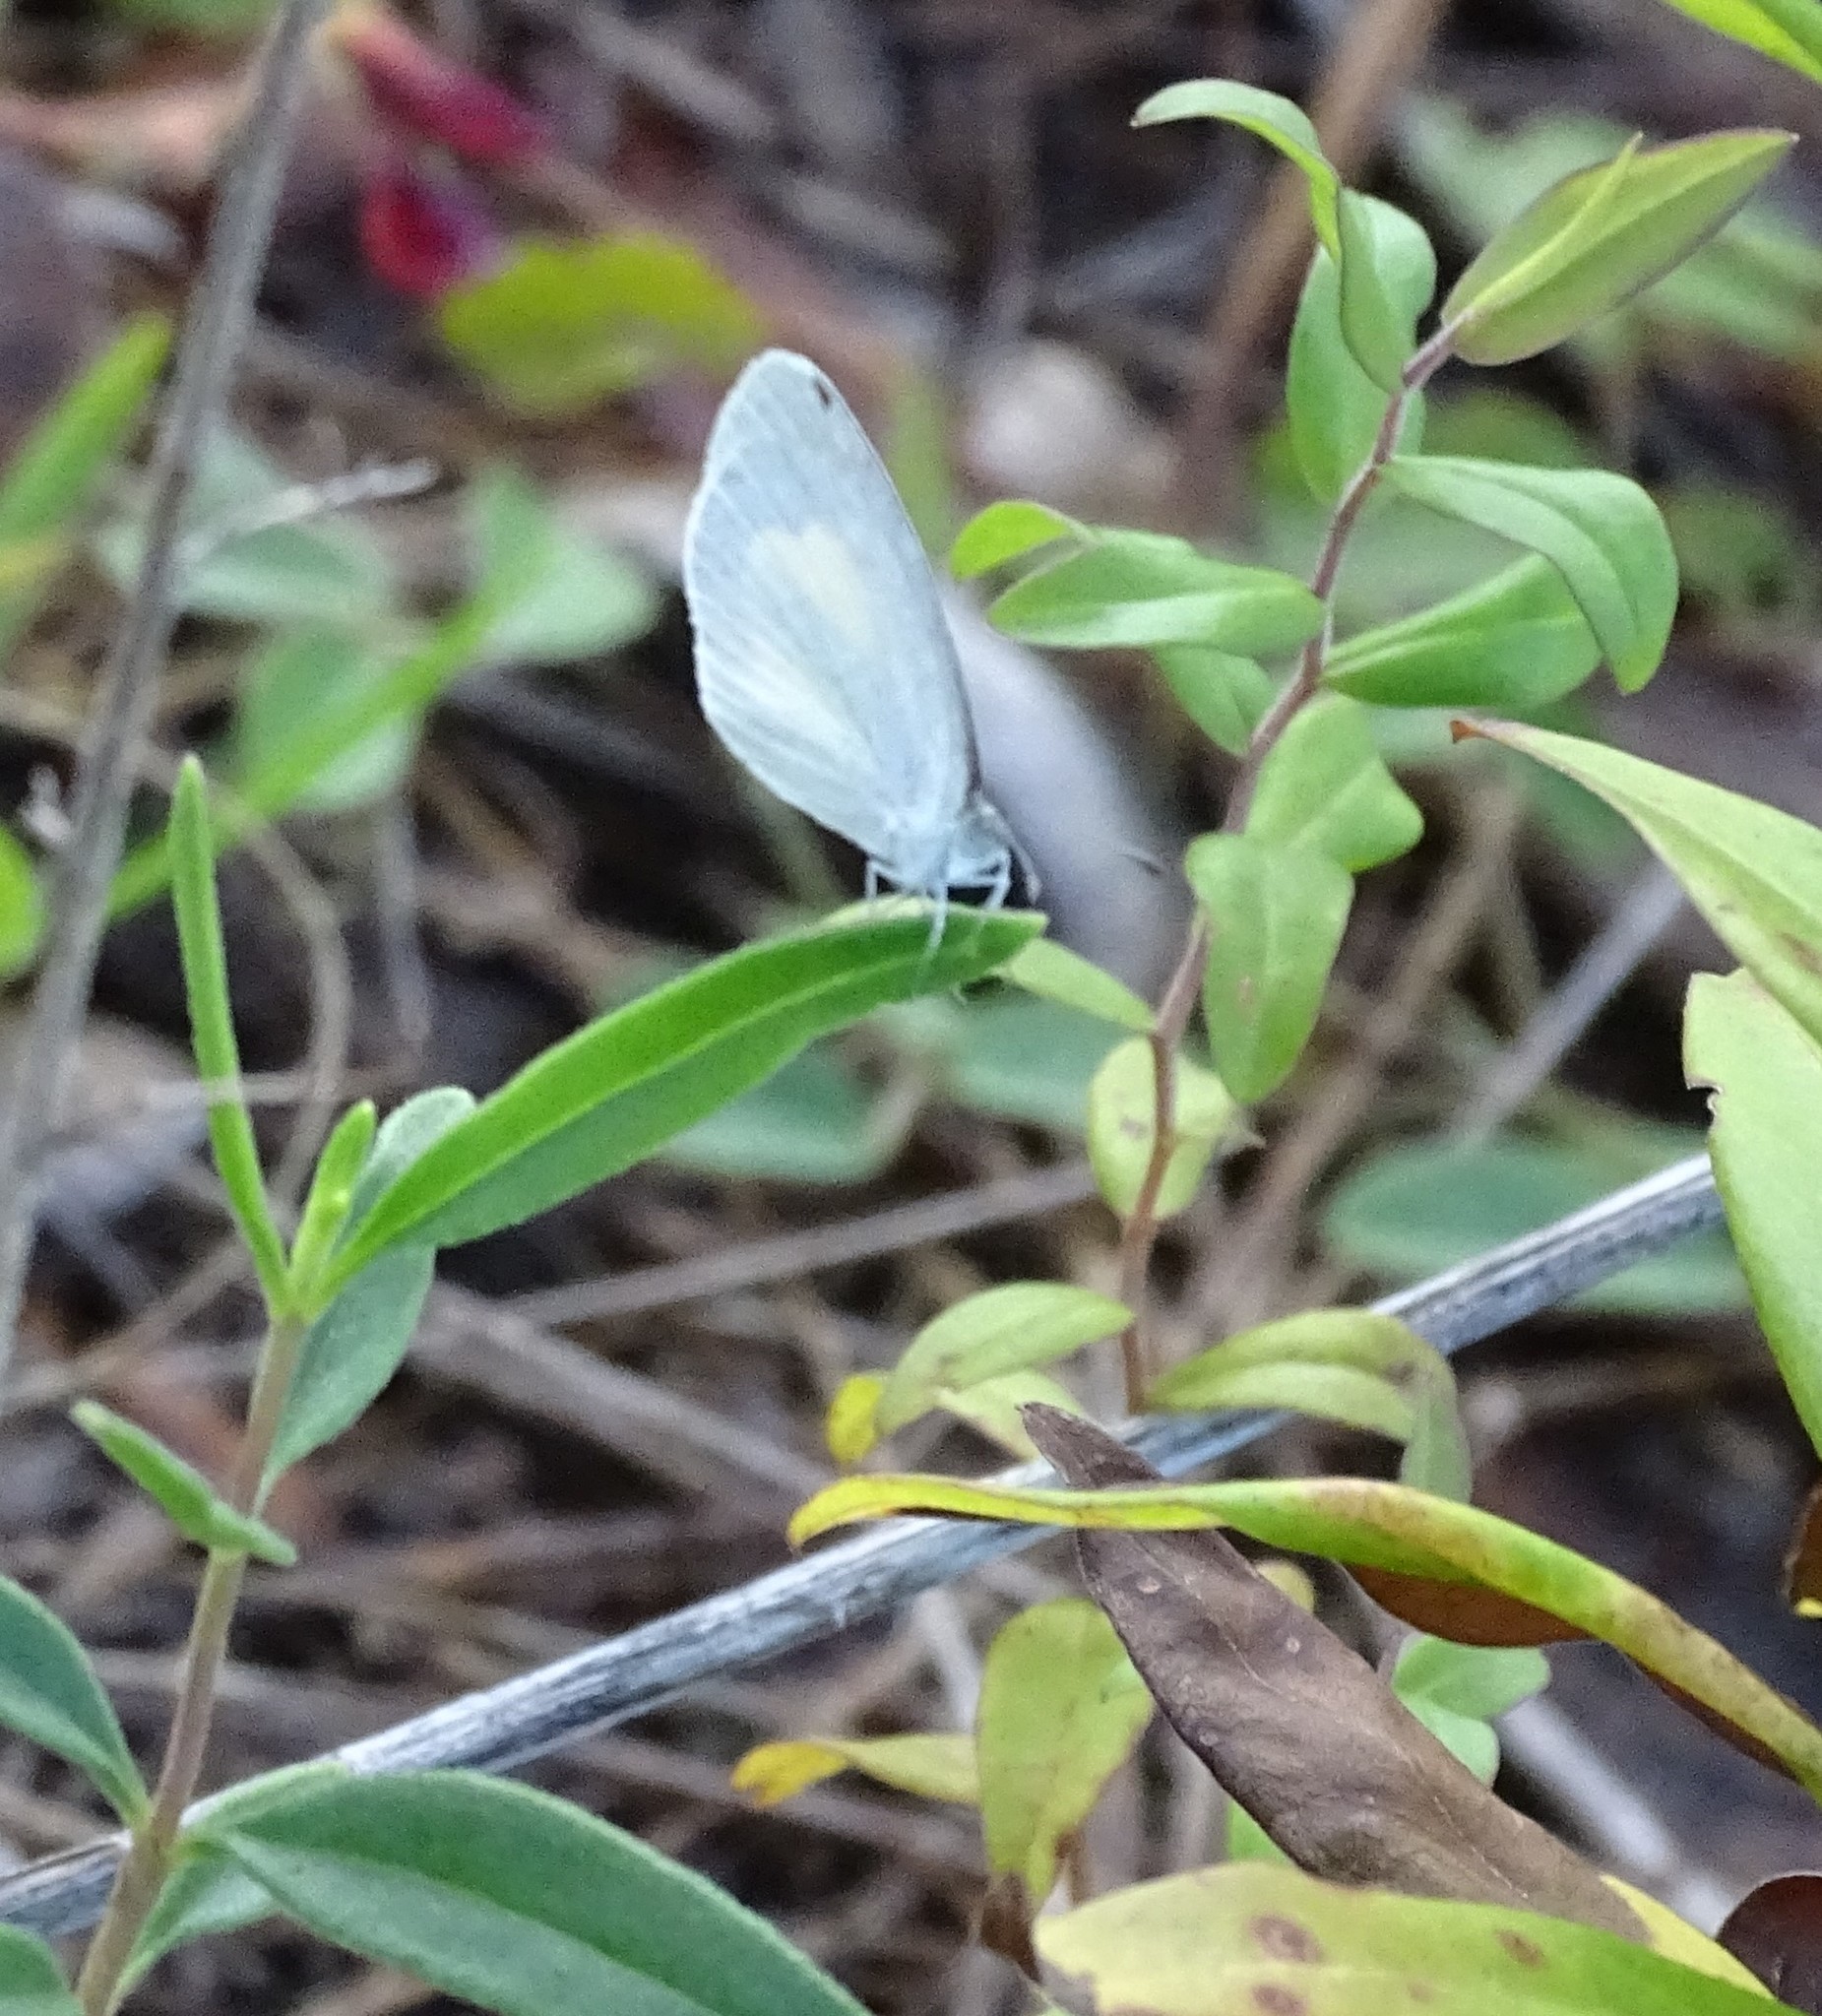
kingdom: Animalia
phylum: Arthropoda
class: Insecta
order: Lepidoptera
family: Pieridae
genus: Eurema
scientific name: Eurema daira
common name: Barred sulphur
